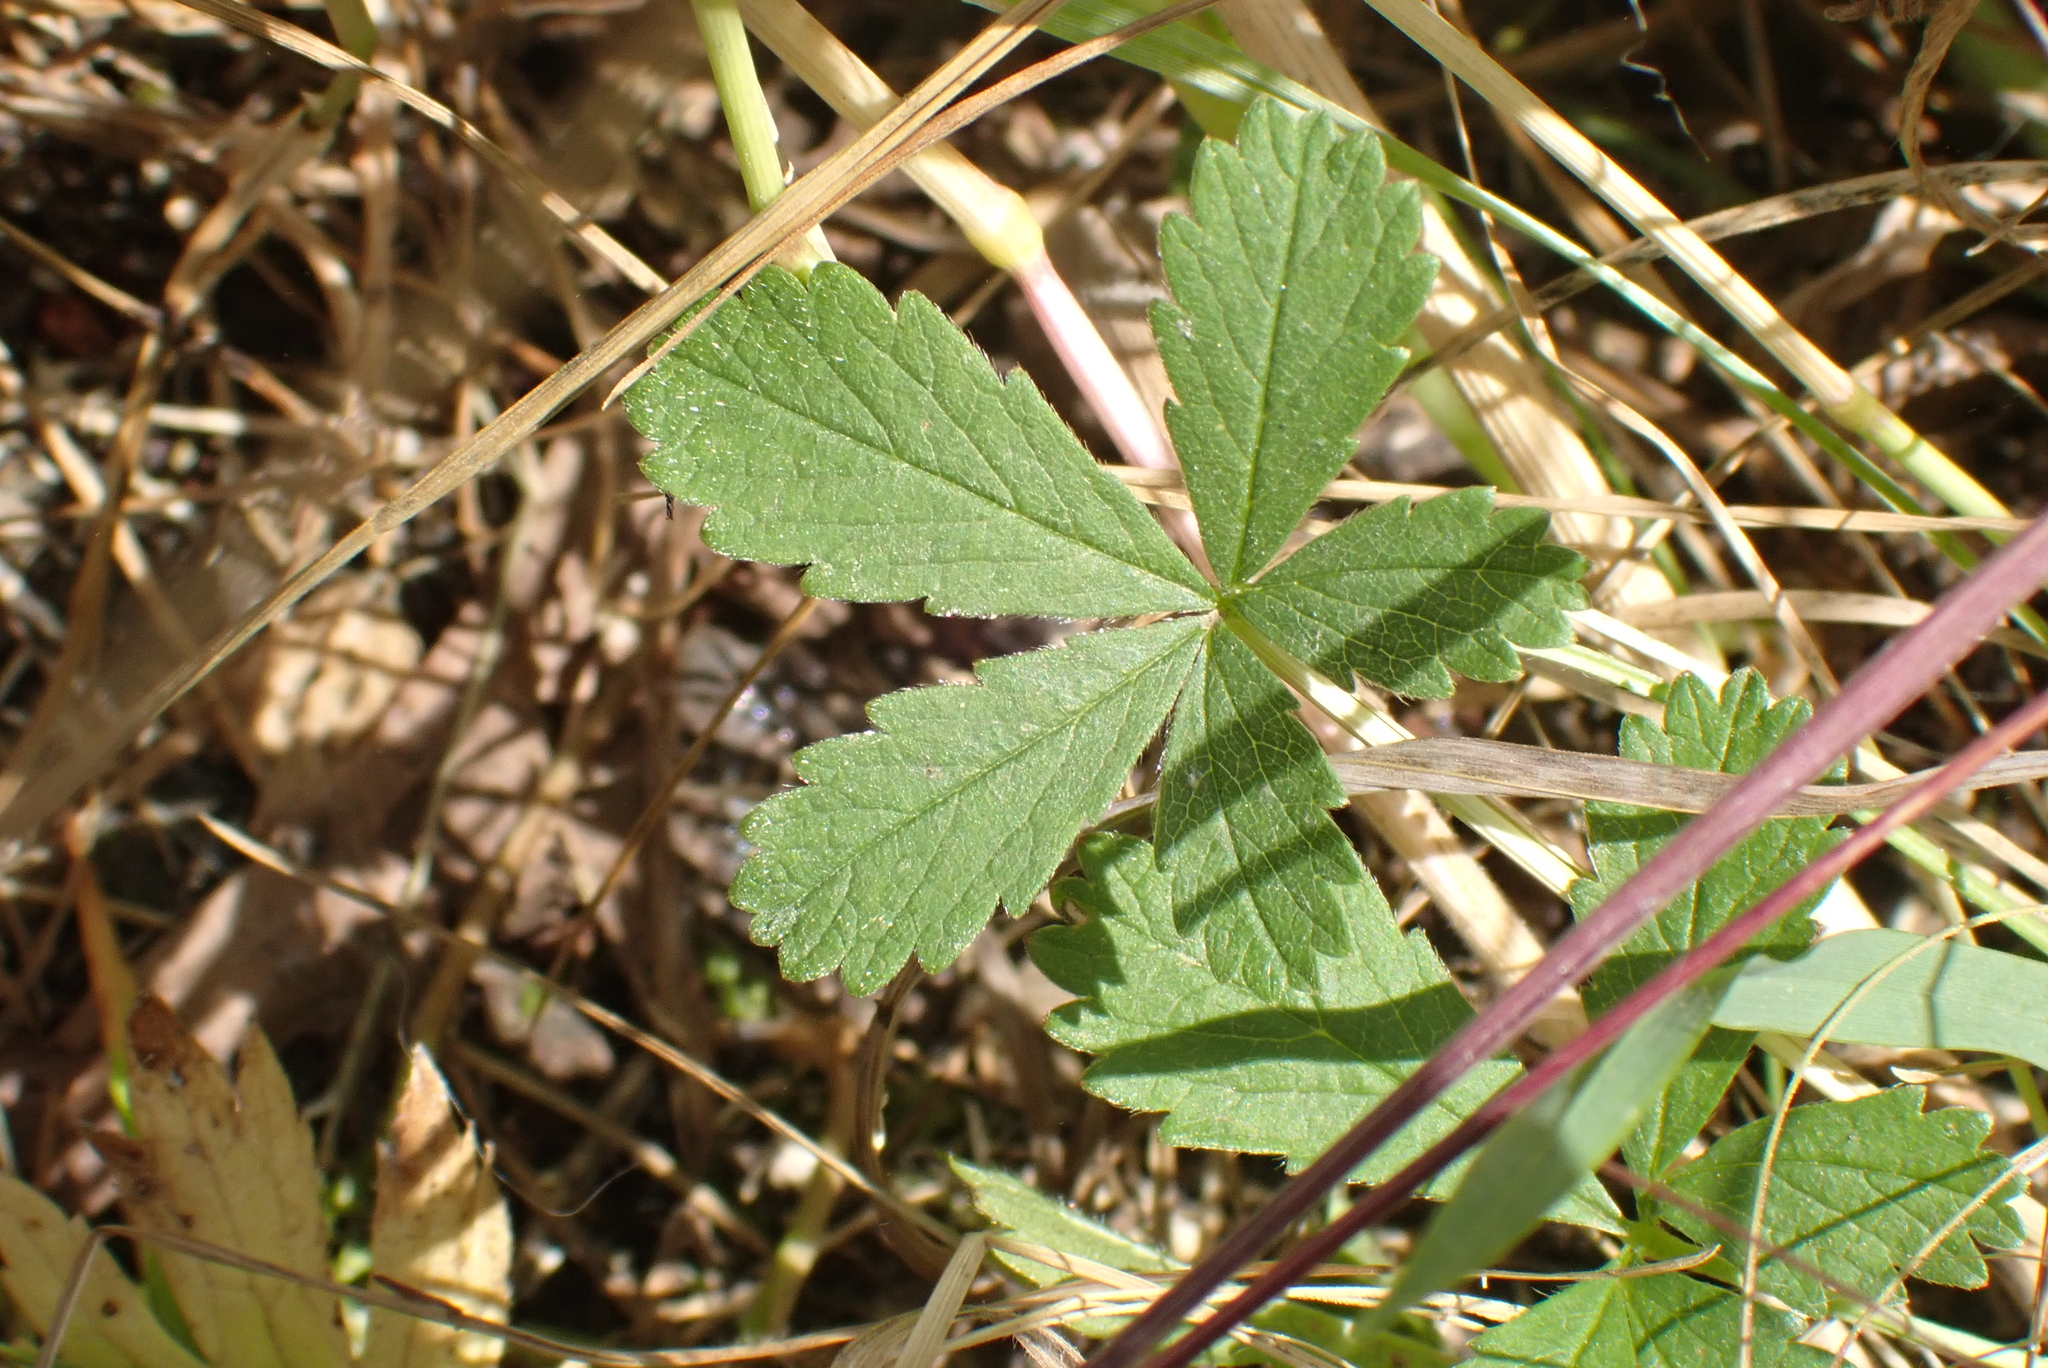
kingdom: Plantae
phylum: Tracheophyta
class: Magnoliopsida
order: Rosales
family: Rosaceae
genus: Potentilla
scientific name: Potentilla reptans
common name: Creeping cinquefoil
